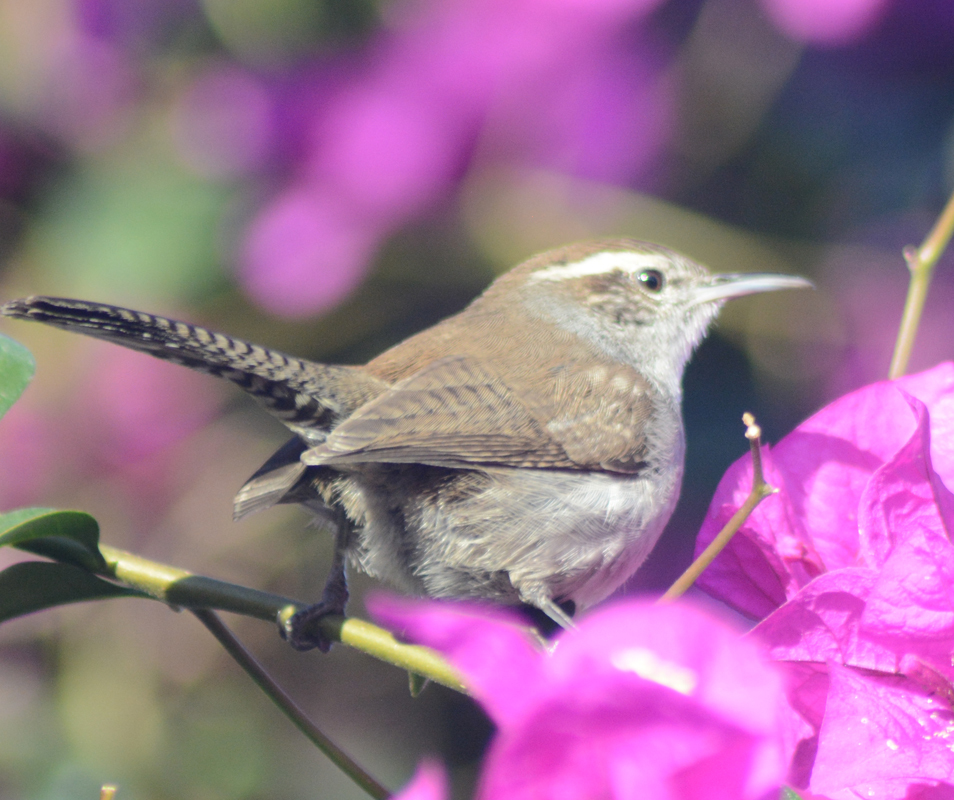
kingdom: Animalia
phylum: Chordata
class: Aves
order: Passeriformes
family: Troglodytidae
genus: Thryomanes
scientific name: Thryomanes bewickii
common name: Bewick's wren
